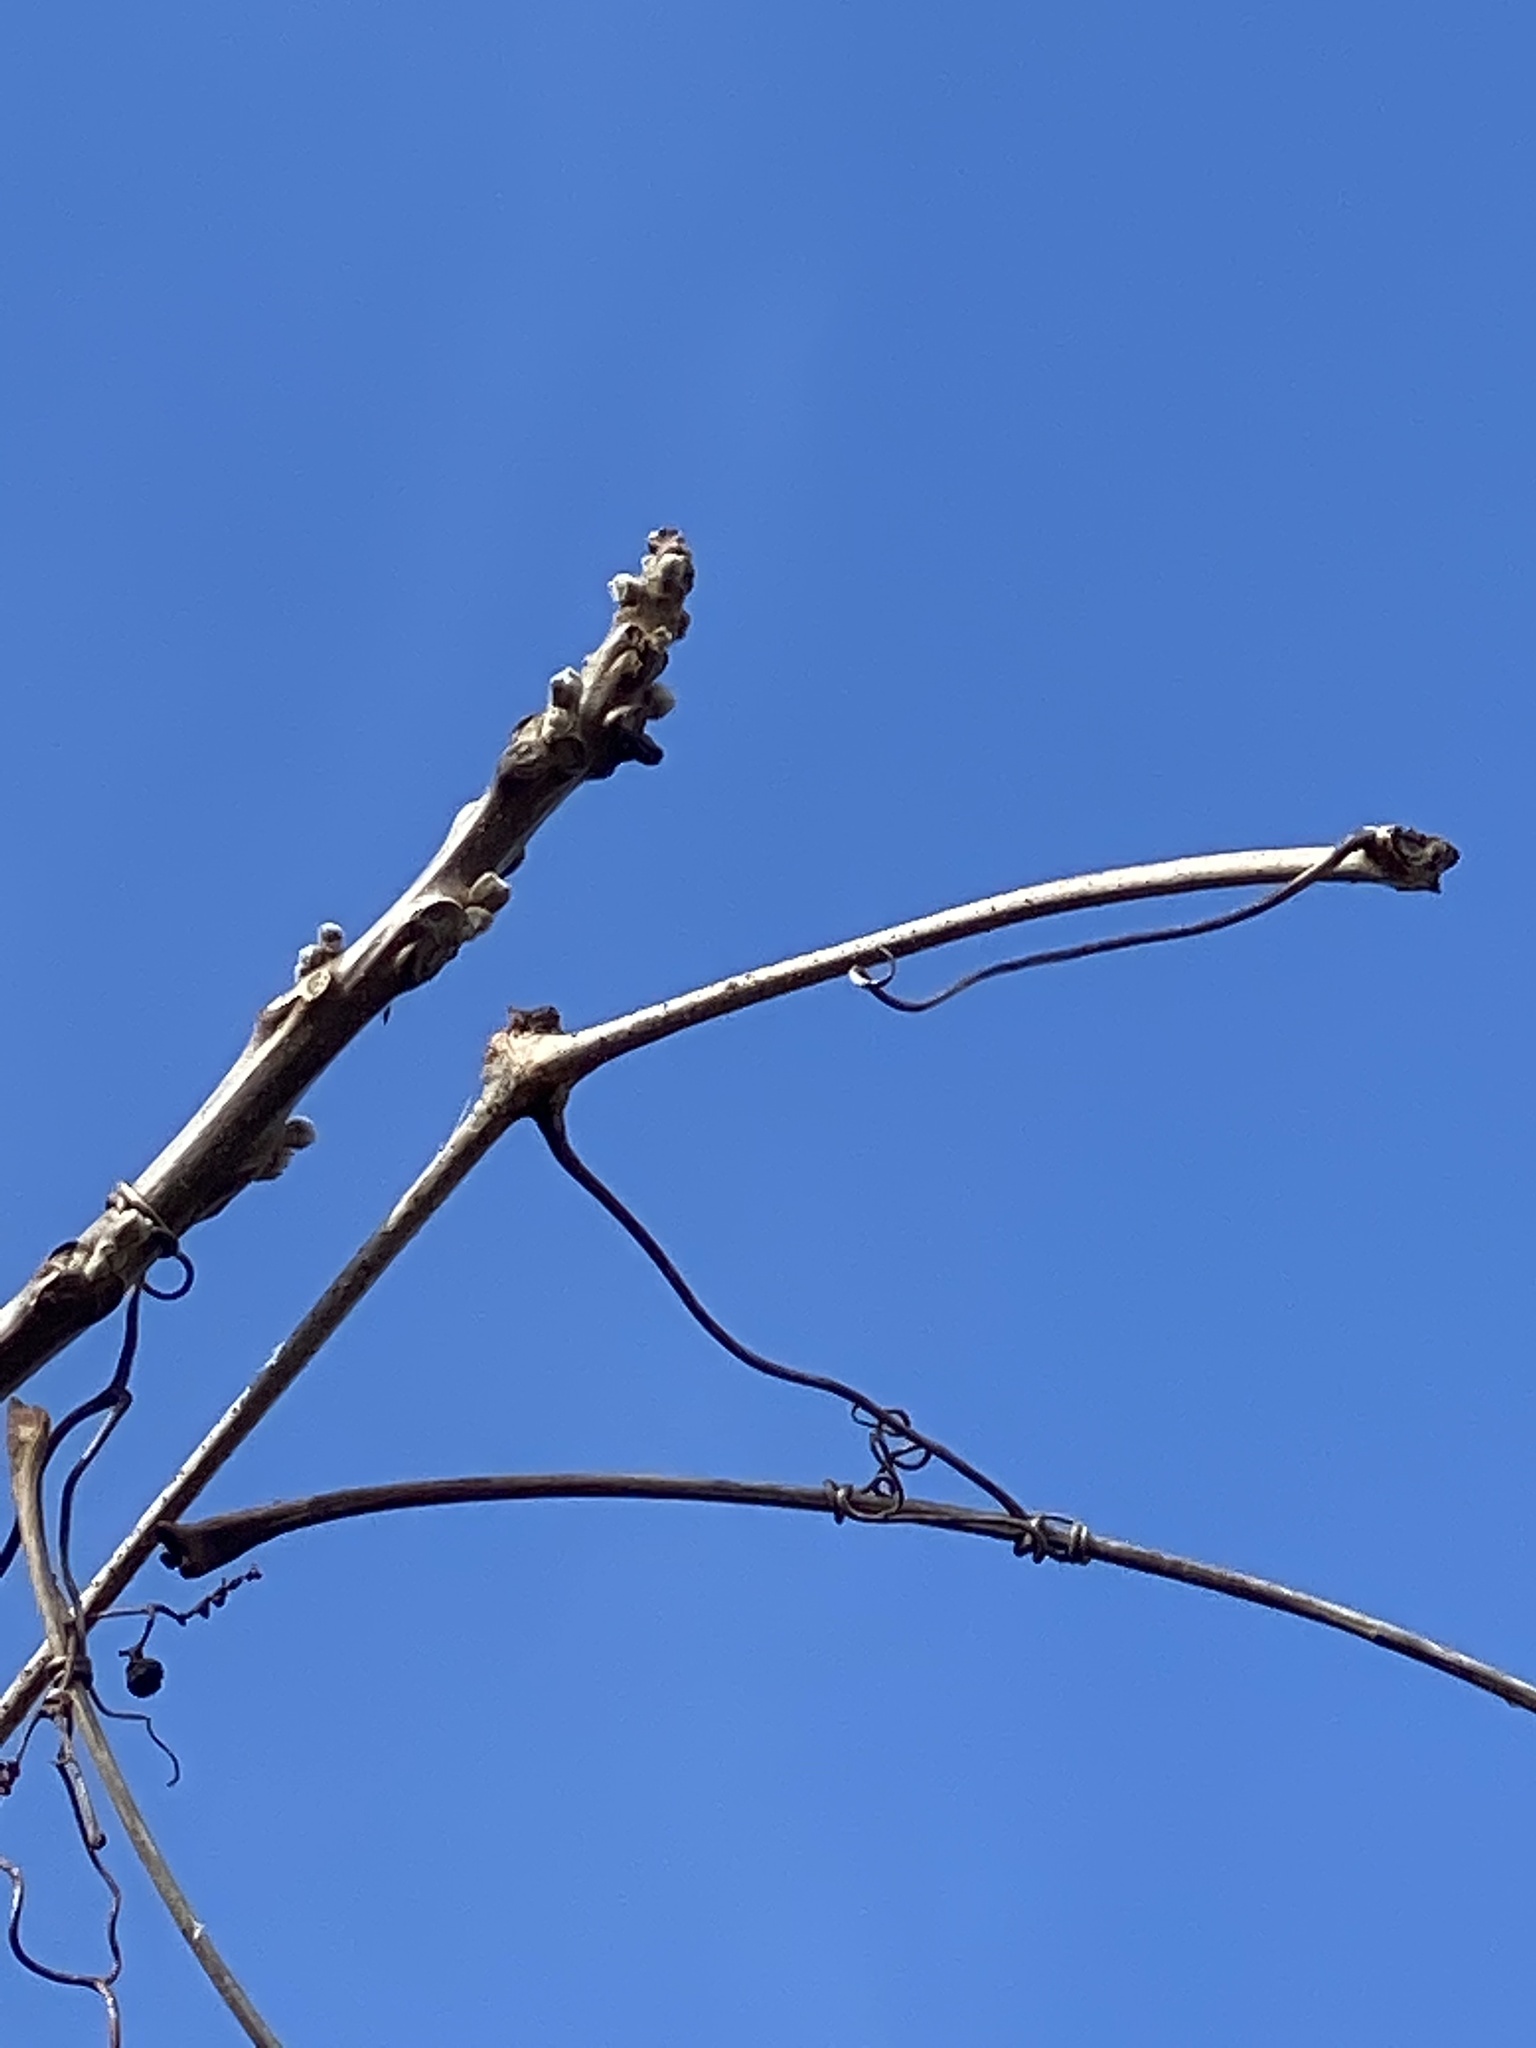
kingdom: Plantae
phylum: Tracheophyta
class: Magnoliopsida
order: Vitales
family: Vitaceae
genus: Ampelopsis
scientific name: Ampelopsis glandulosa
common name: Amur peppervine
